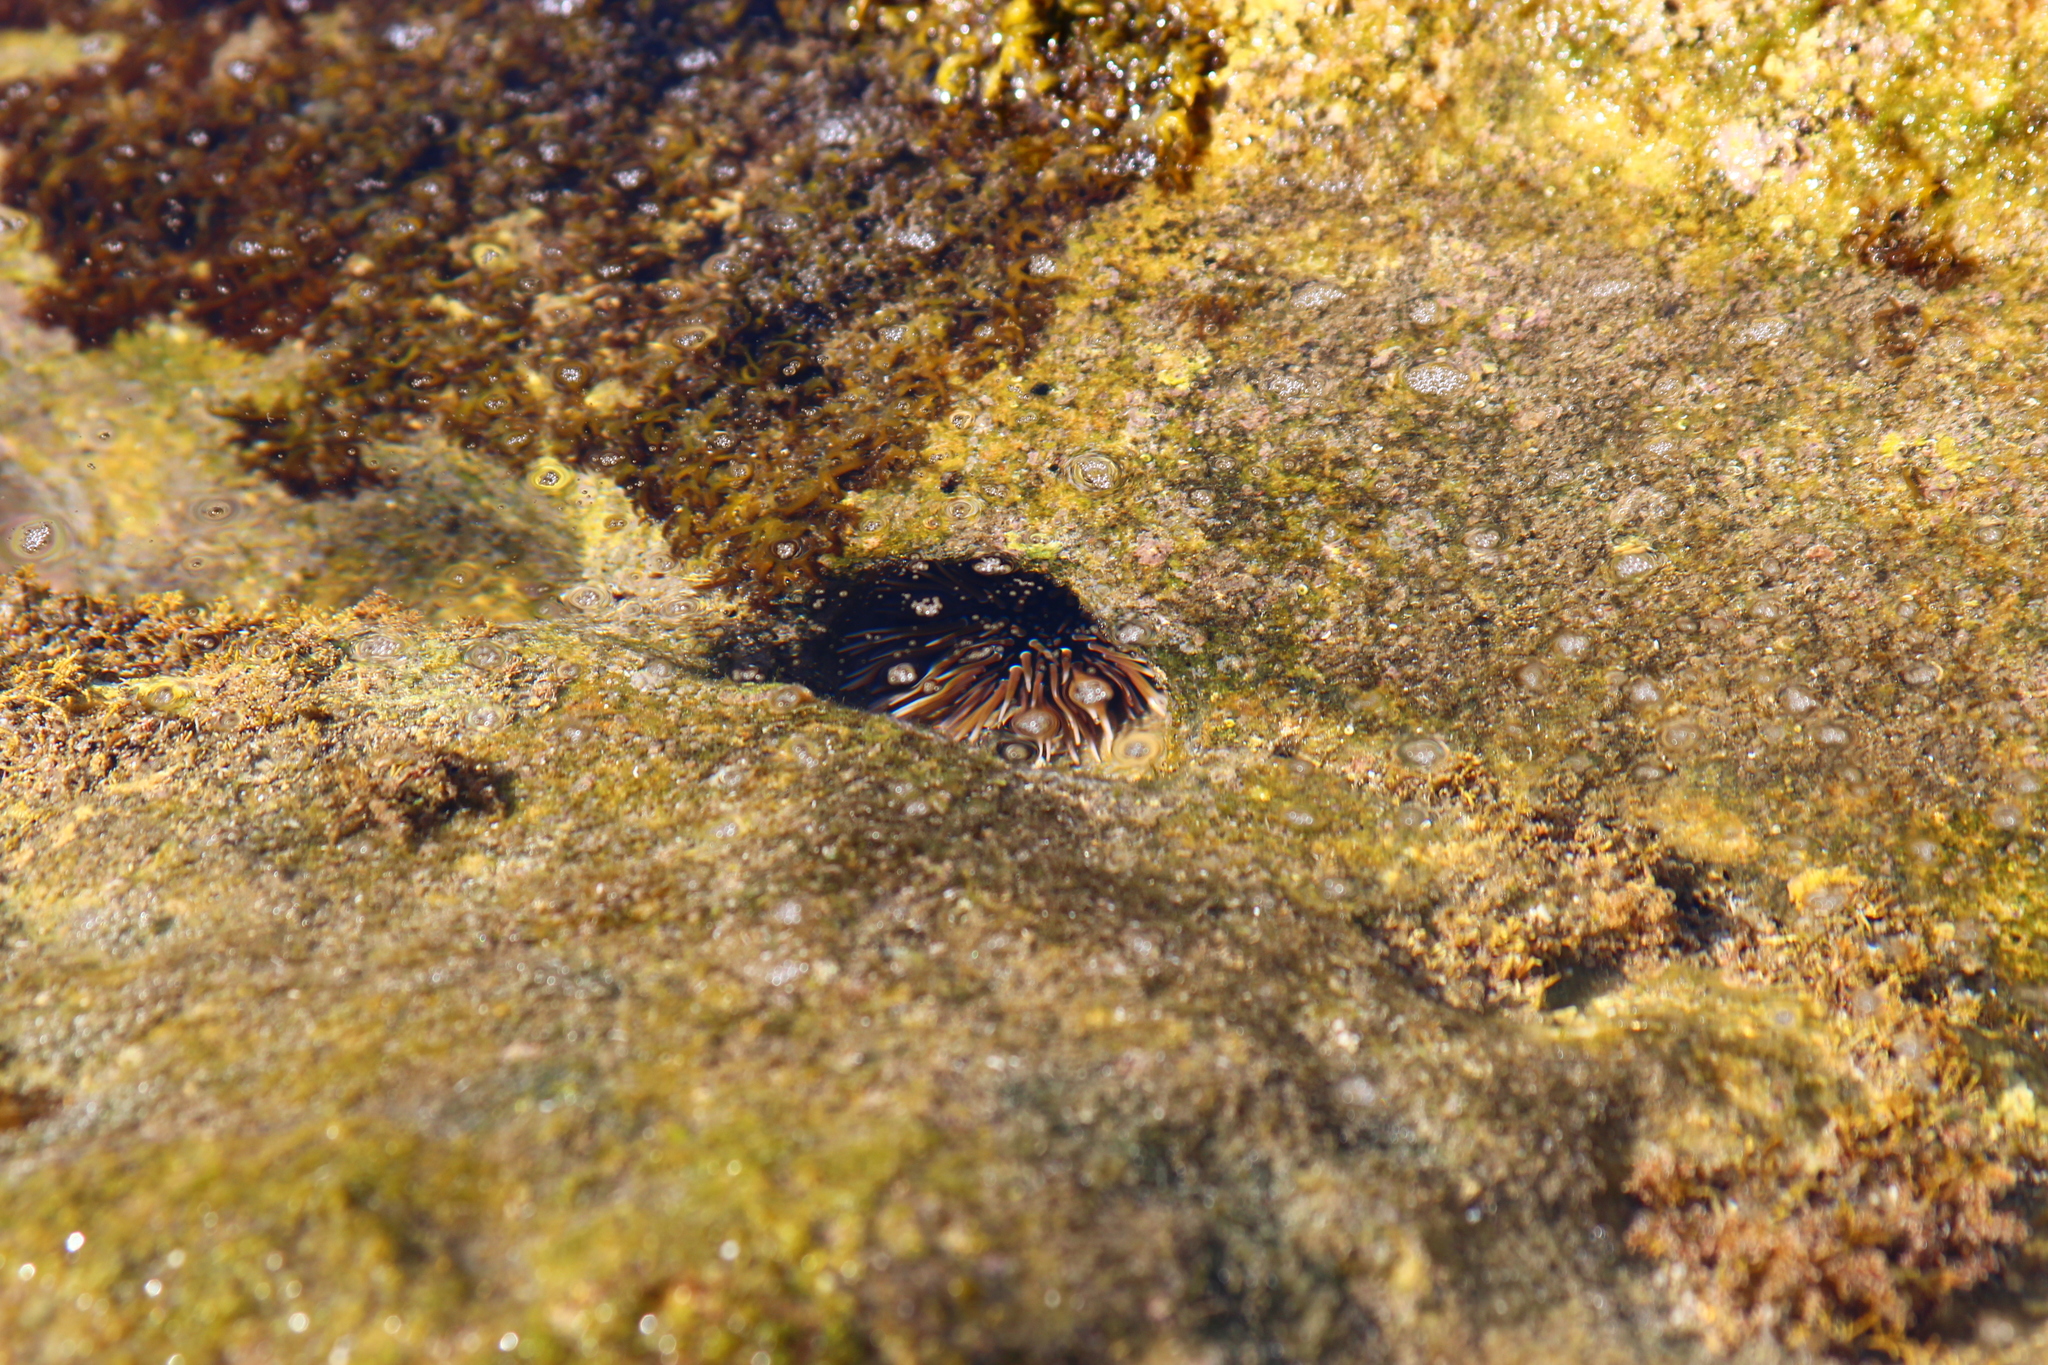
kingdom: Animalia
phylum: Echinodermata
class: Echinoidea
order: Camarodonta
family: Echinometridae
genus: Echinometra
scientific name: Echinometra mathaei
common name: Rock-boring urchin
